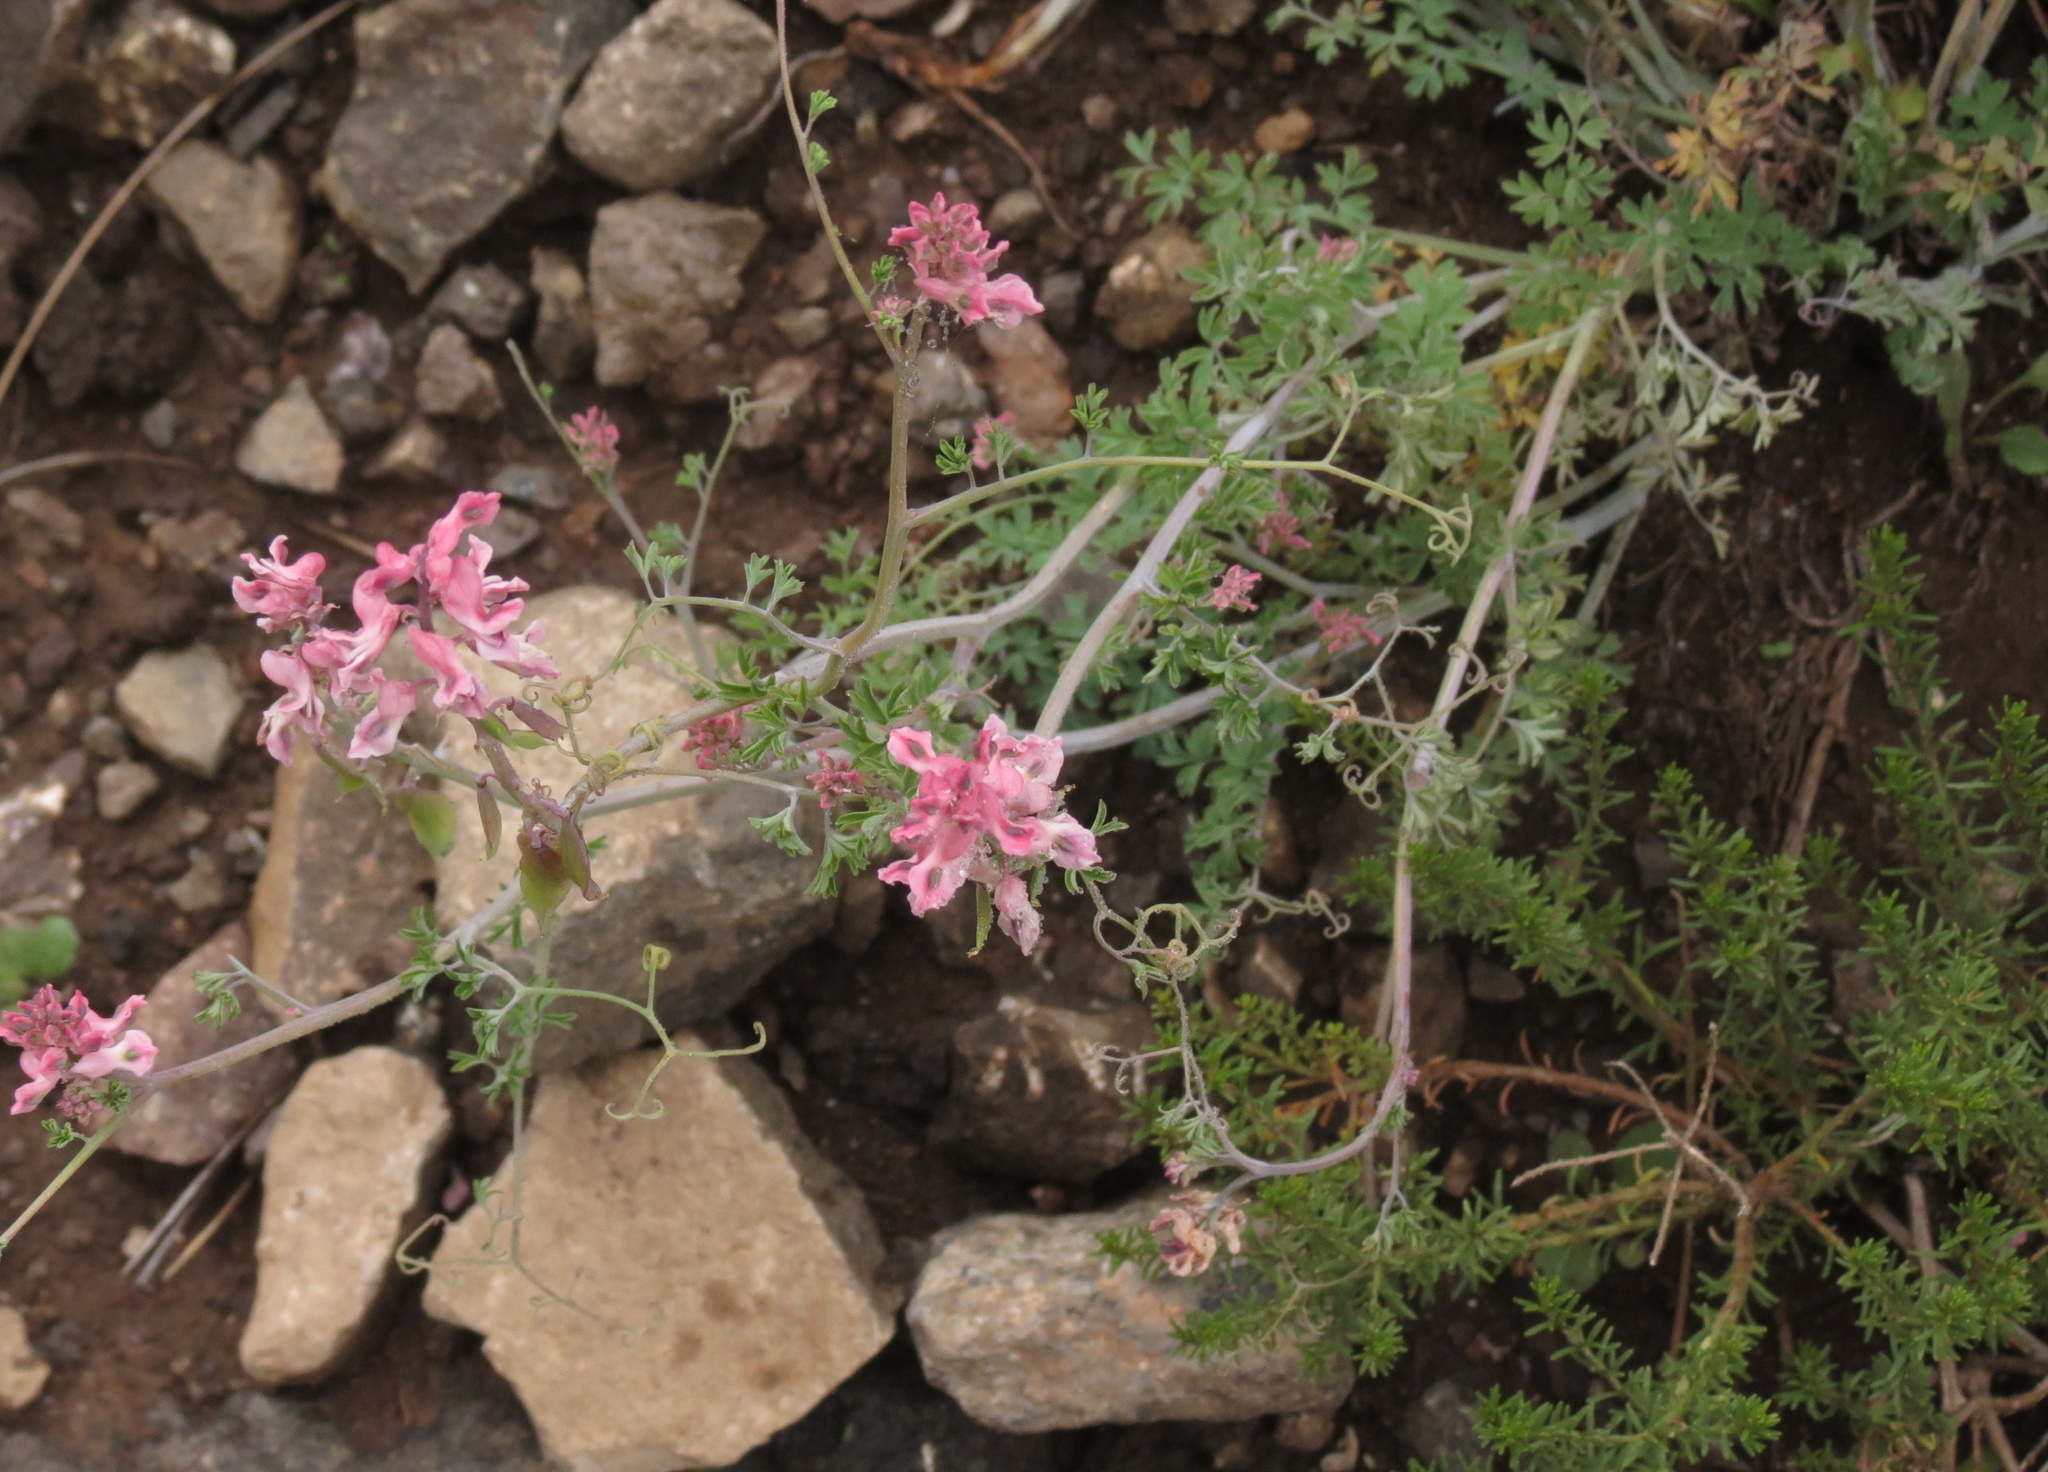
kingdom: Plantae
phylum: Tracheophyta
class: Magnoliopsida
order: Ranunculales
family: Papaveraceae
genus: Cysticapnos
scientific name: Cysticapnos pruinosa
